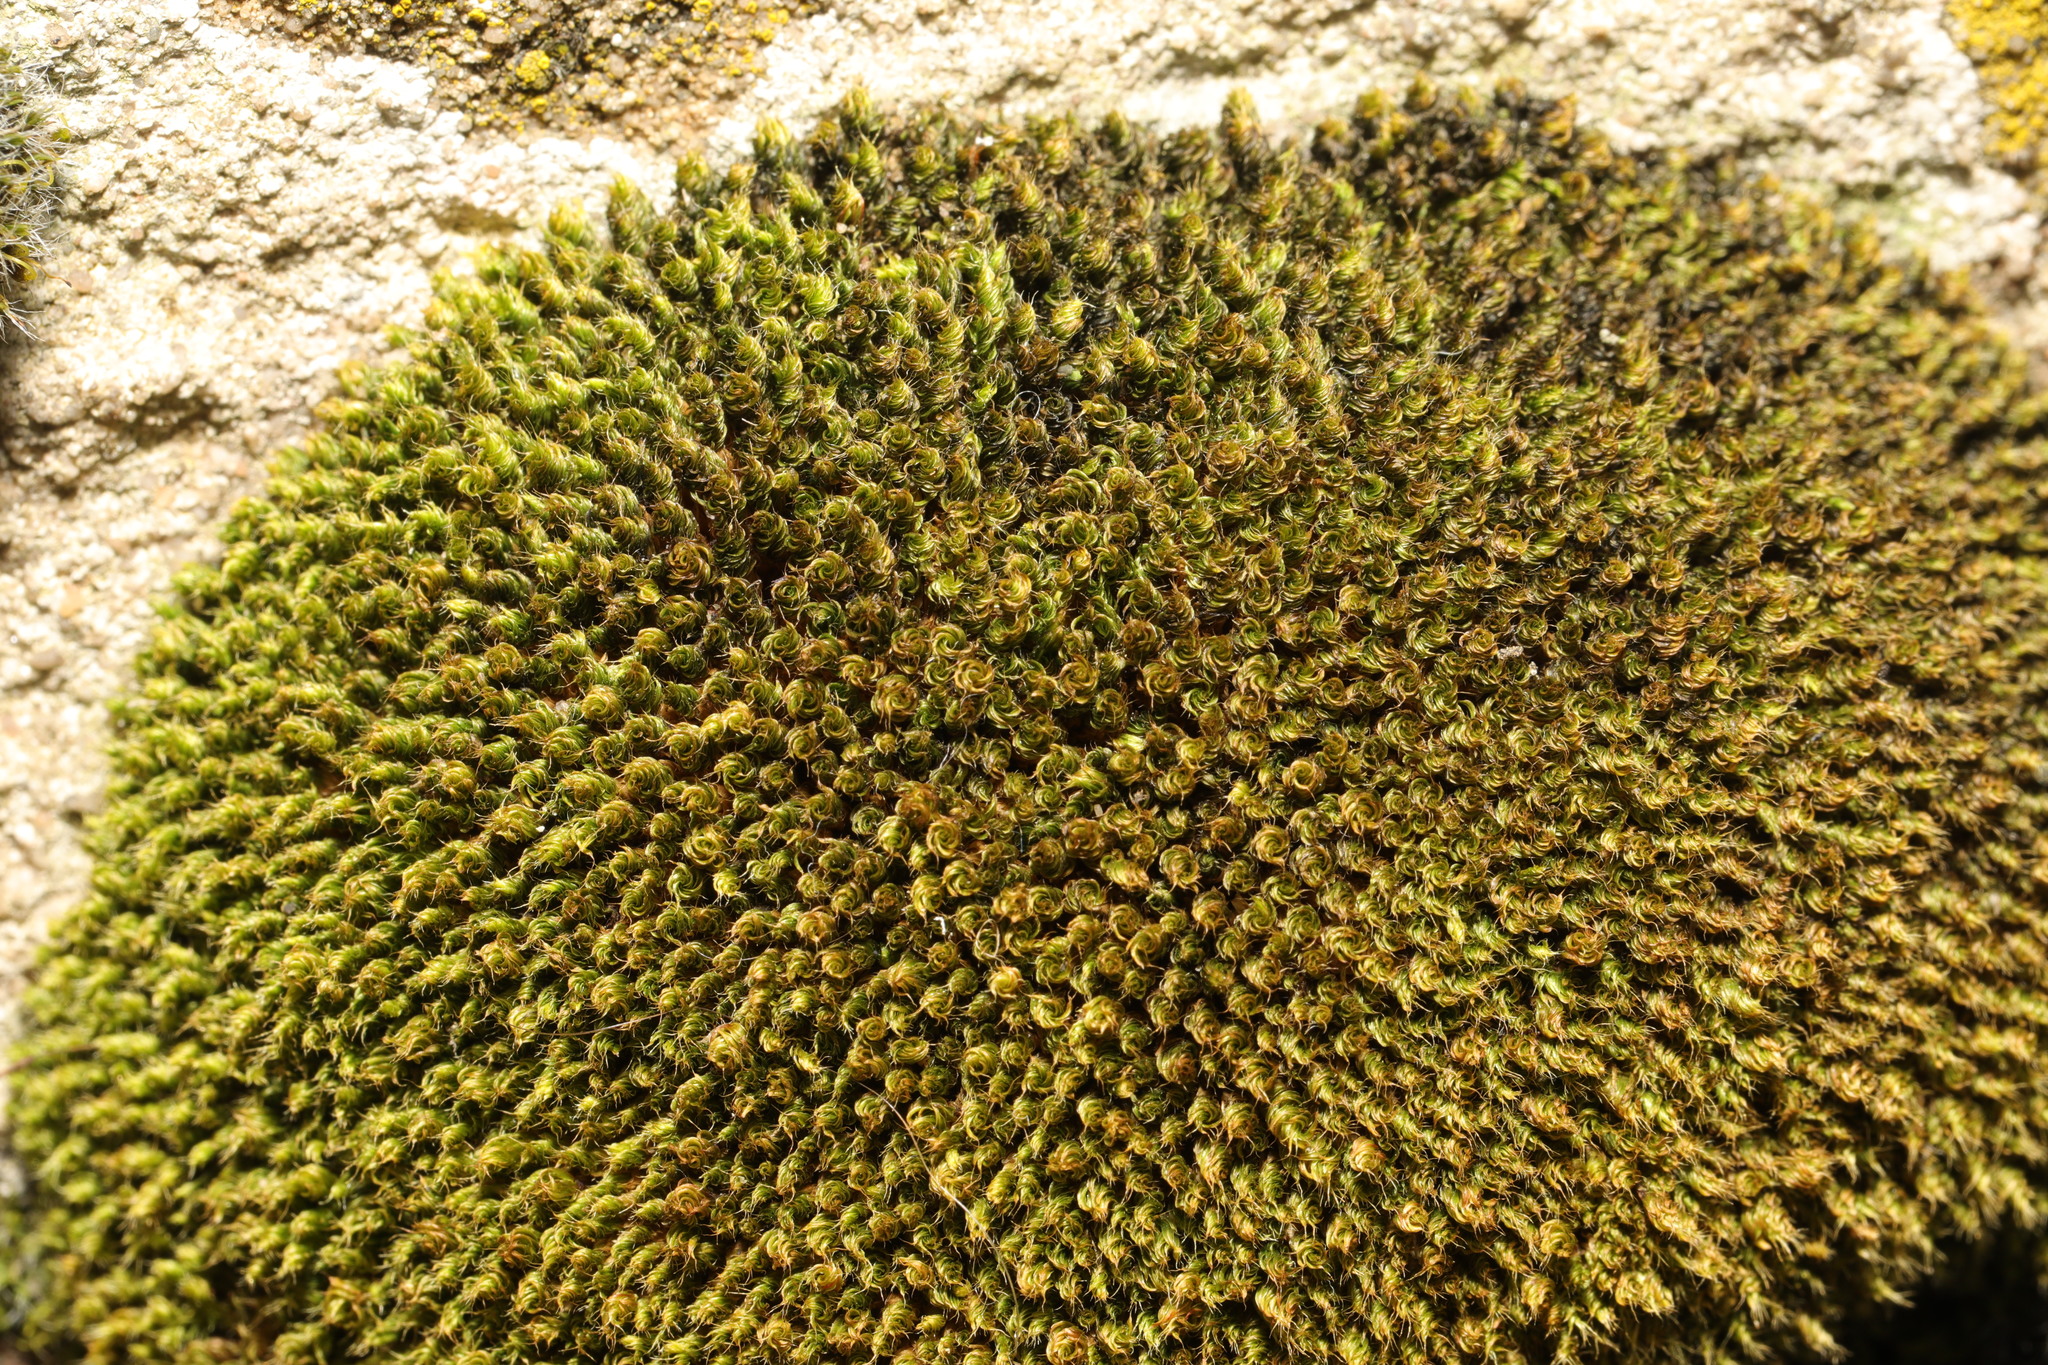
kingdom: Plantae
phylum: Bryophyta
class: Bryopsida
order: Bryales
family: Bryaceae
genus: Rosulabryum
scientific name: Rosulabryum capillare
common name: Capillary thread-moss
